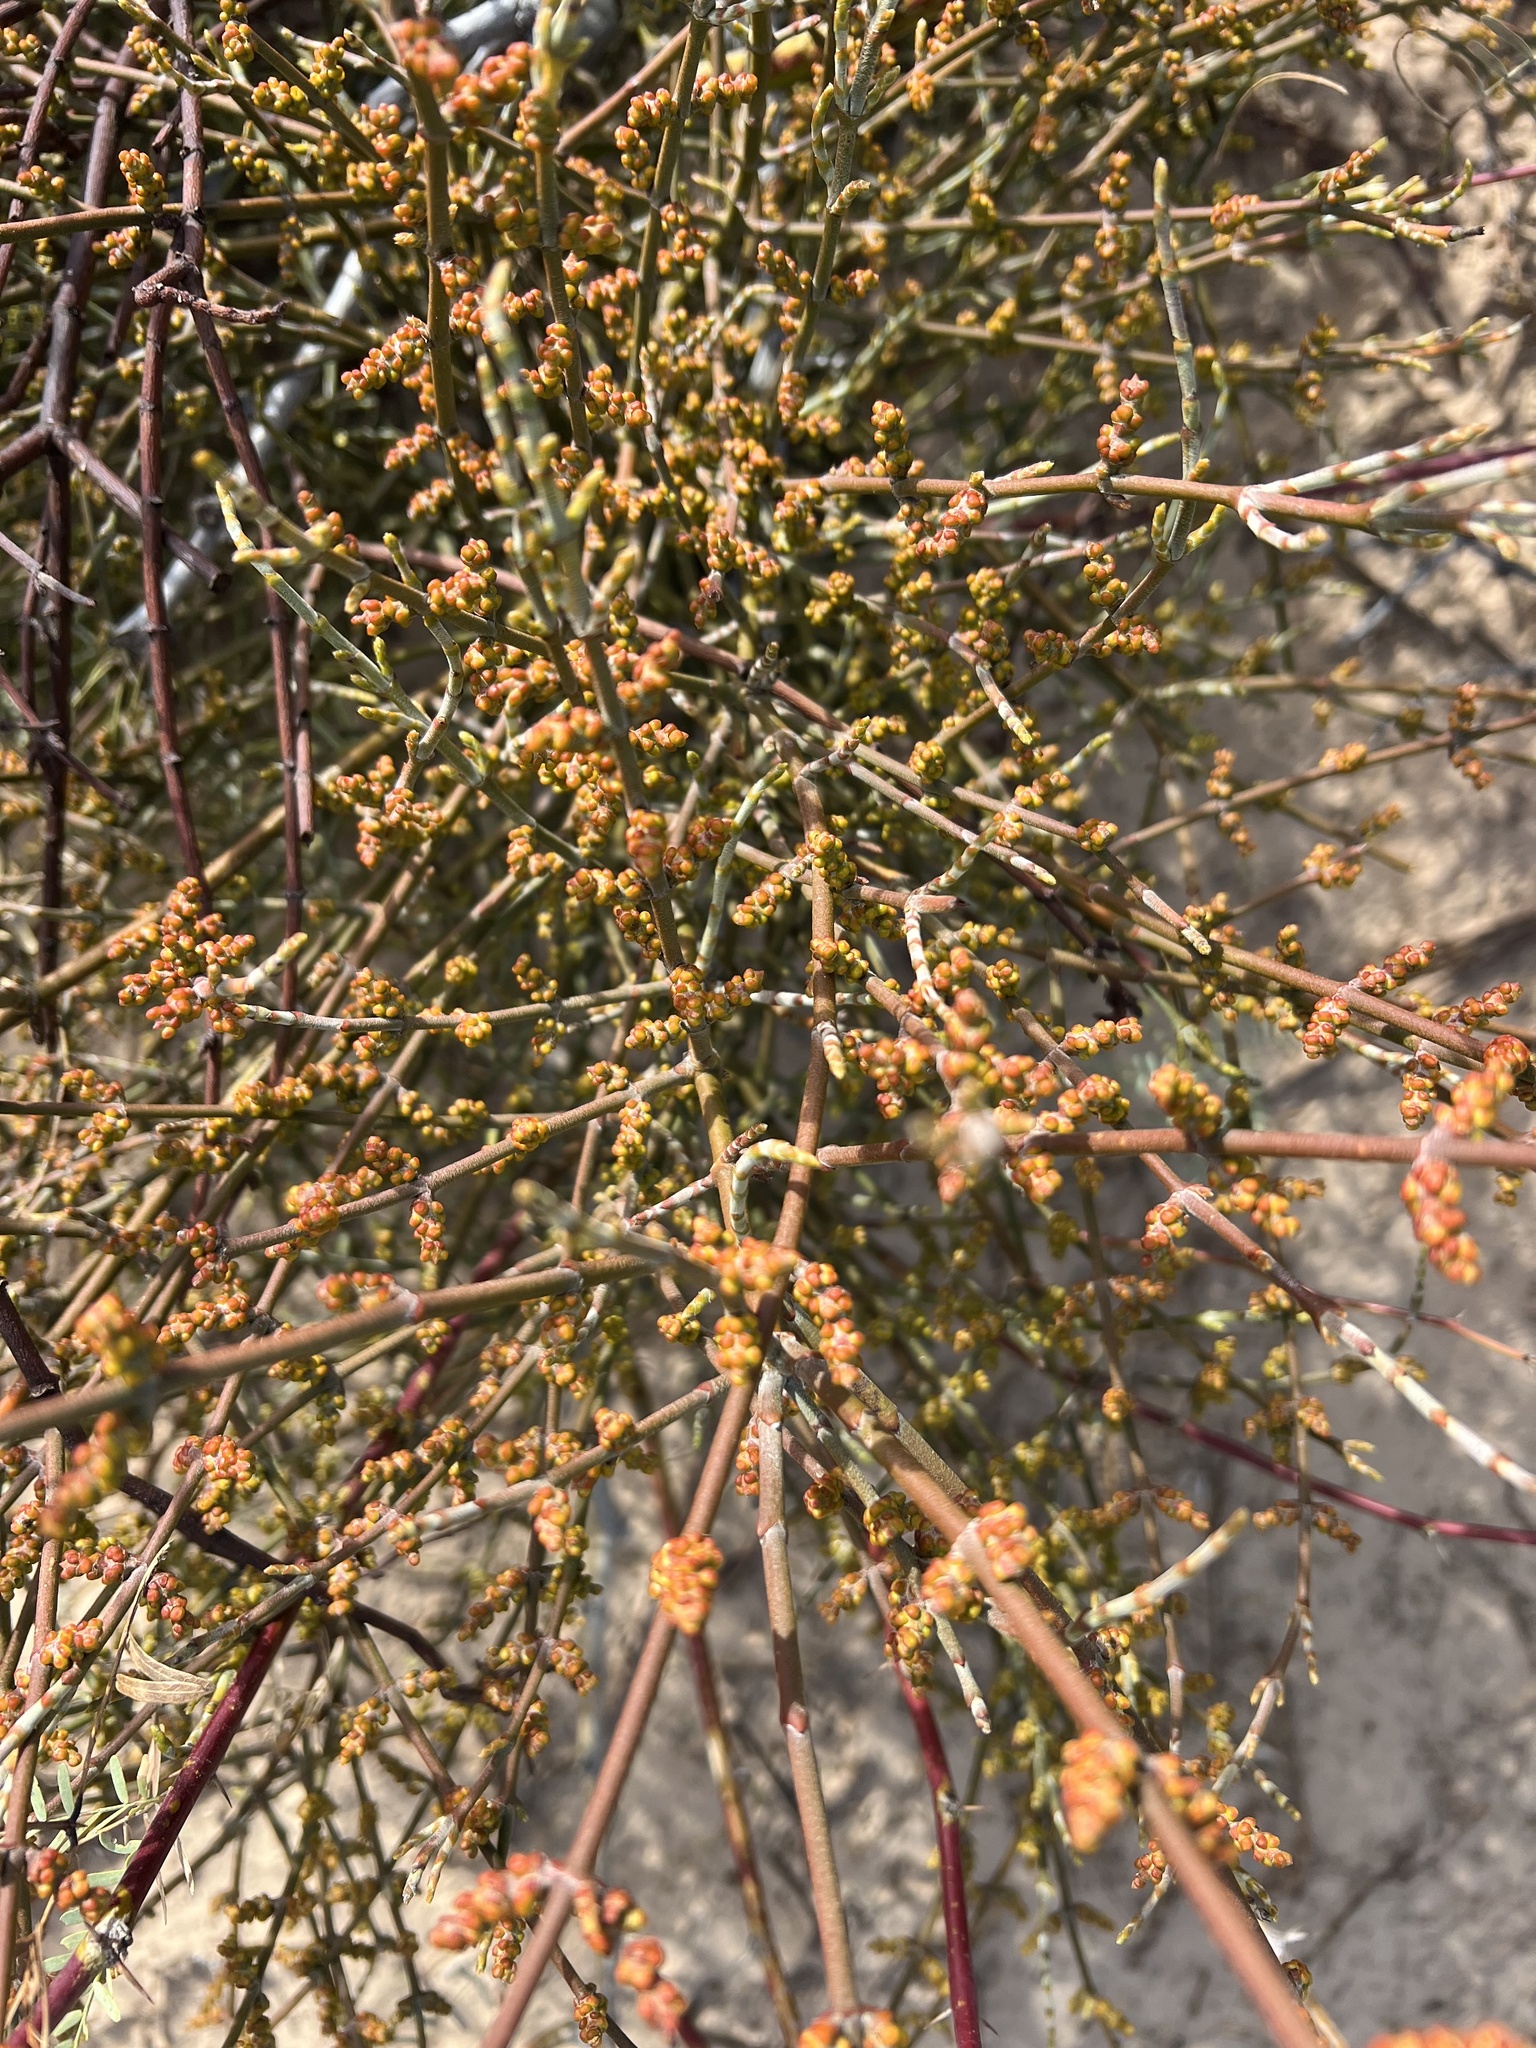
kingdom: Plantae
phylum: Tracheophyta
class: Magnoliopsida
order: Santalales
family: Viscaceae
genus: Phoradendron
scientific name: Phoradendron californicum
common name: Acacia mistletoe
